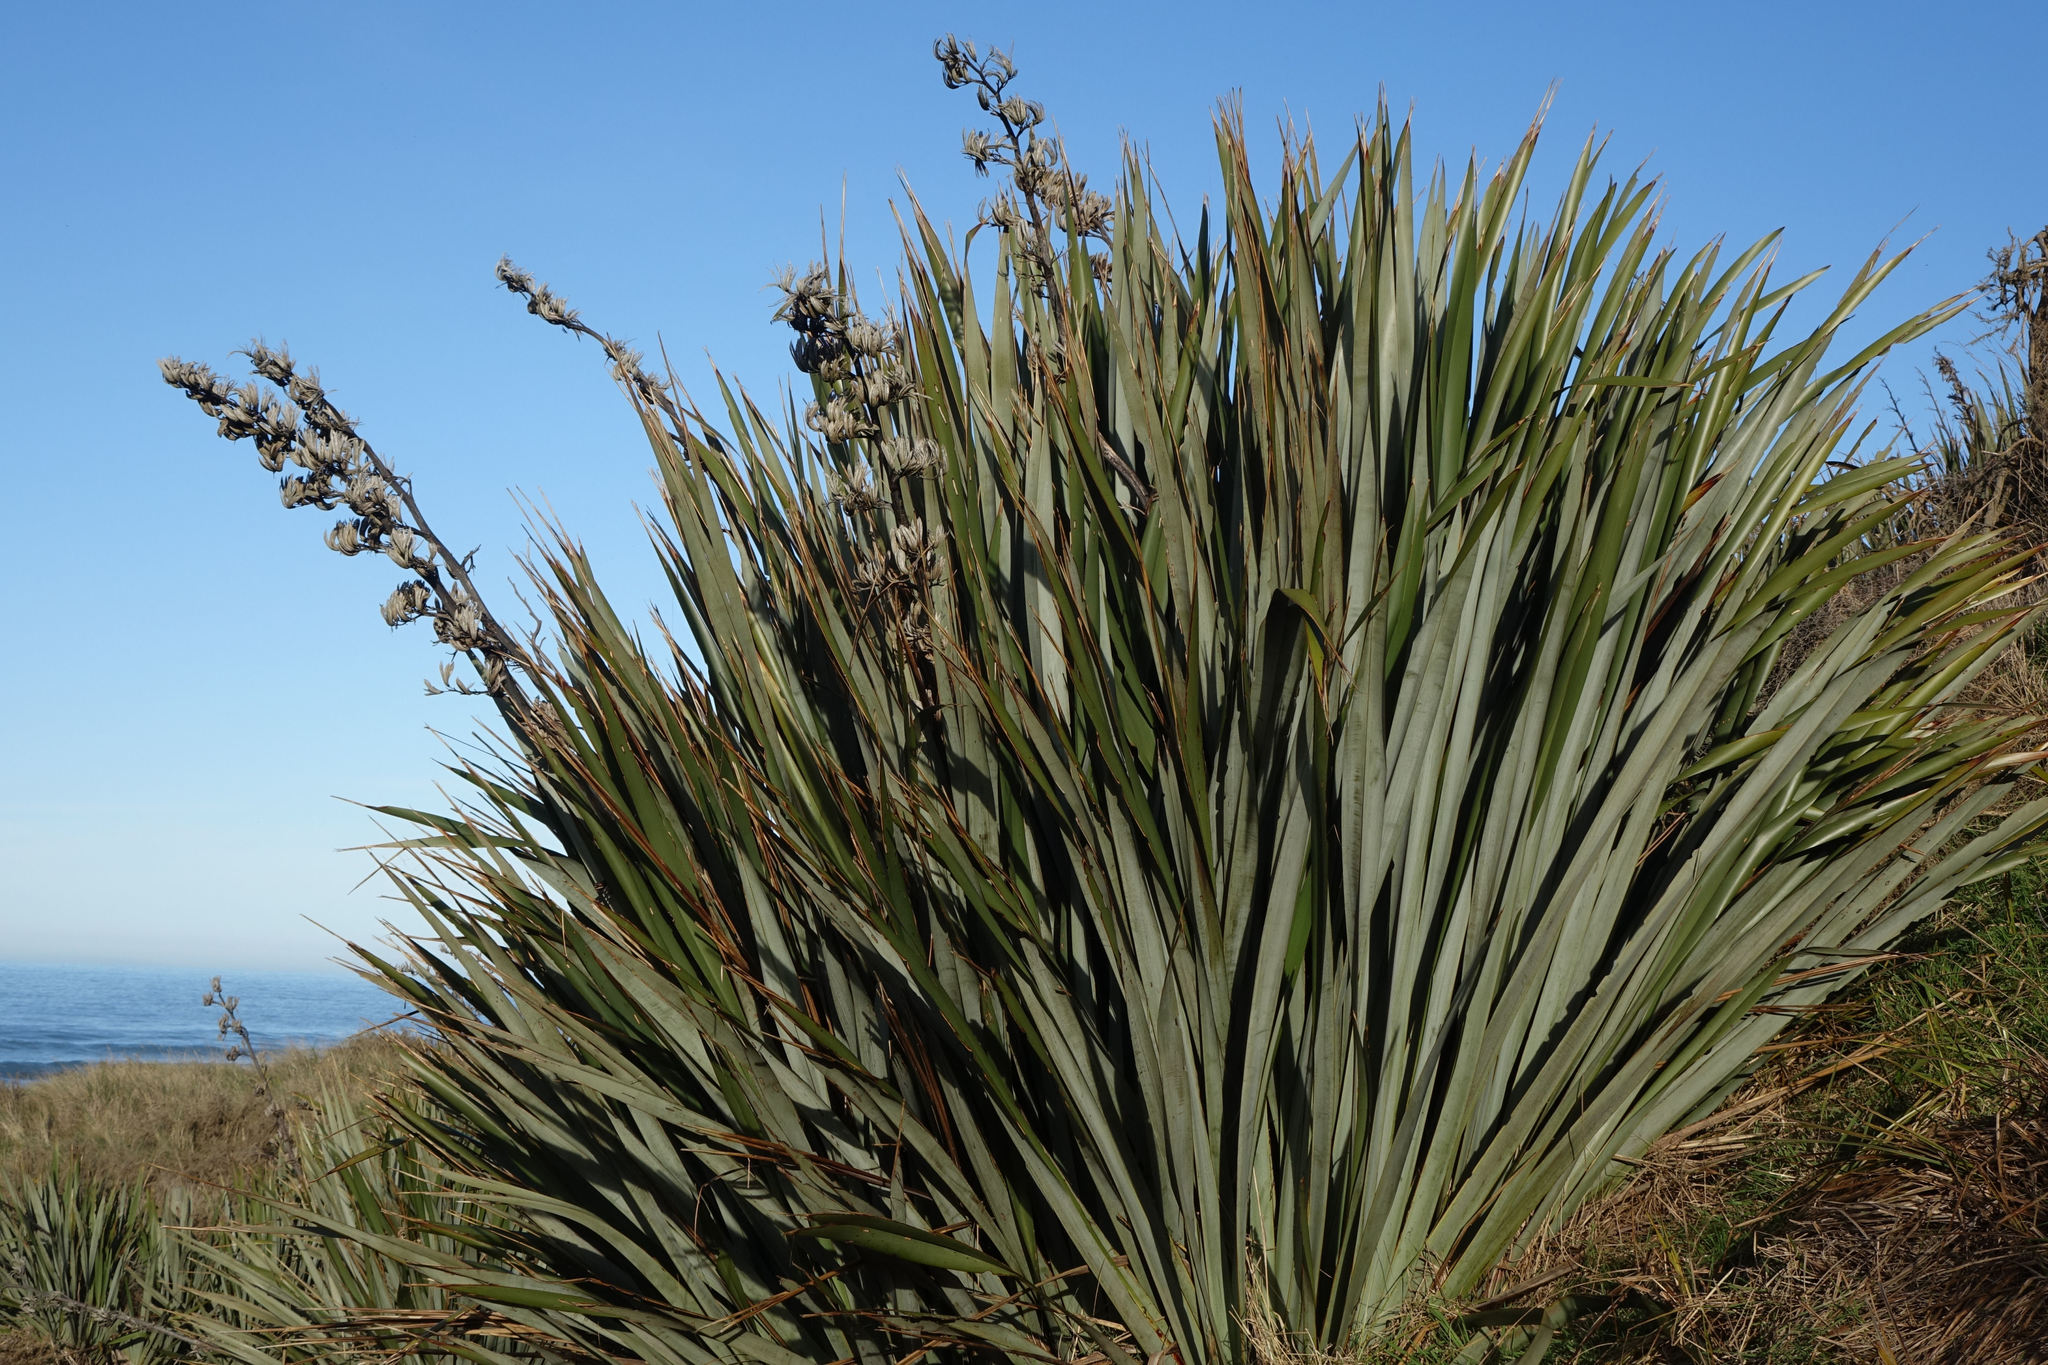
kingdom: Plantae
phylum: Tracheophyta
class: Liliopsida
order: Asparagales
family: Asphodelaceae
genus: Phormium
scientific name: Phormium tenax
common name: New zealand flax
